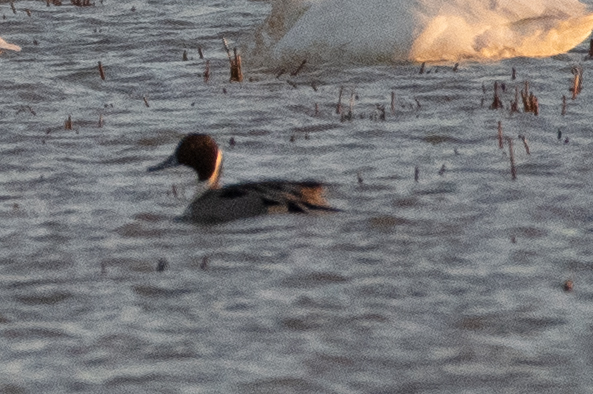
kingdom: Animalia
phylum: Chordata
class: Aves
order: Anseriformes
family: Anatidae
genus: Anas
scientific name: Anas acuta
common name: Northern pintail
